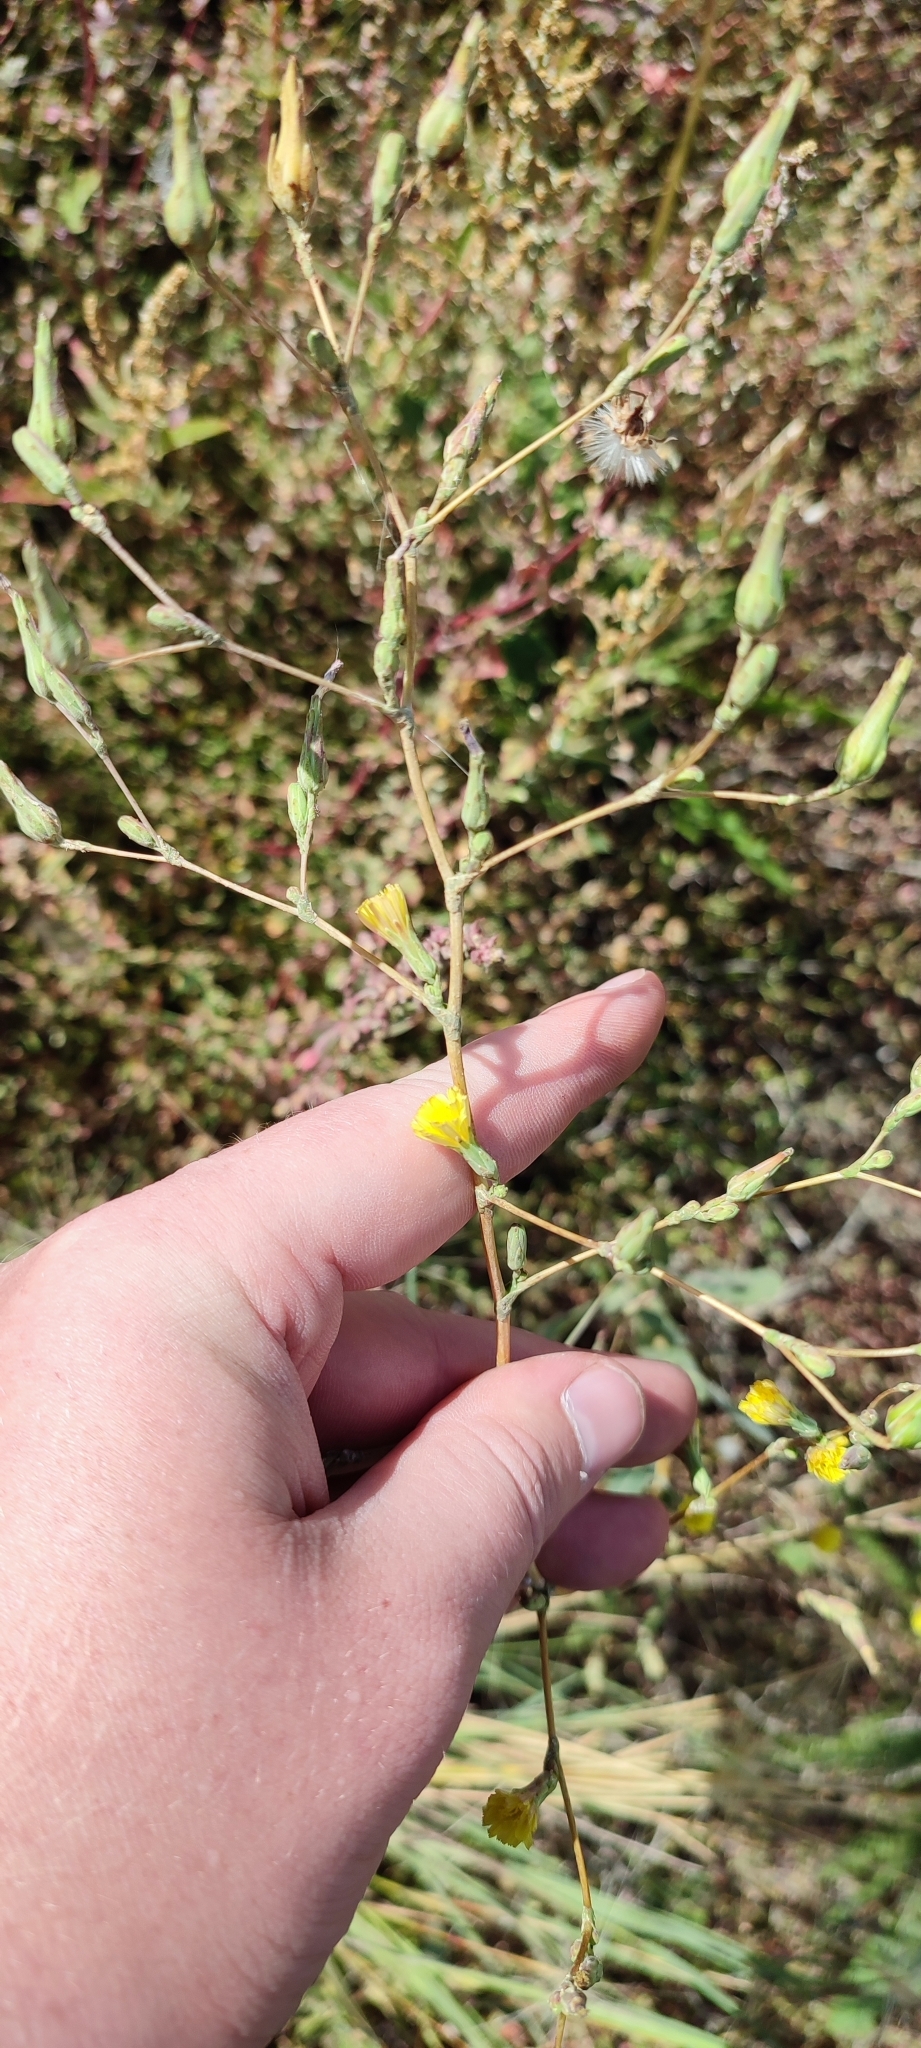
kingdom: Plantae
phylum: Tracheophyta
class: Magnoliopsida
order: Asterales
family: Asteraceae
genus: Lactuca
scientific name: Lactuca serriola
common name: Prickly lettuce
